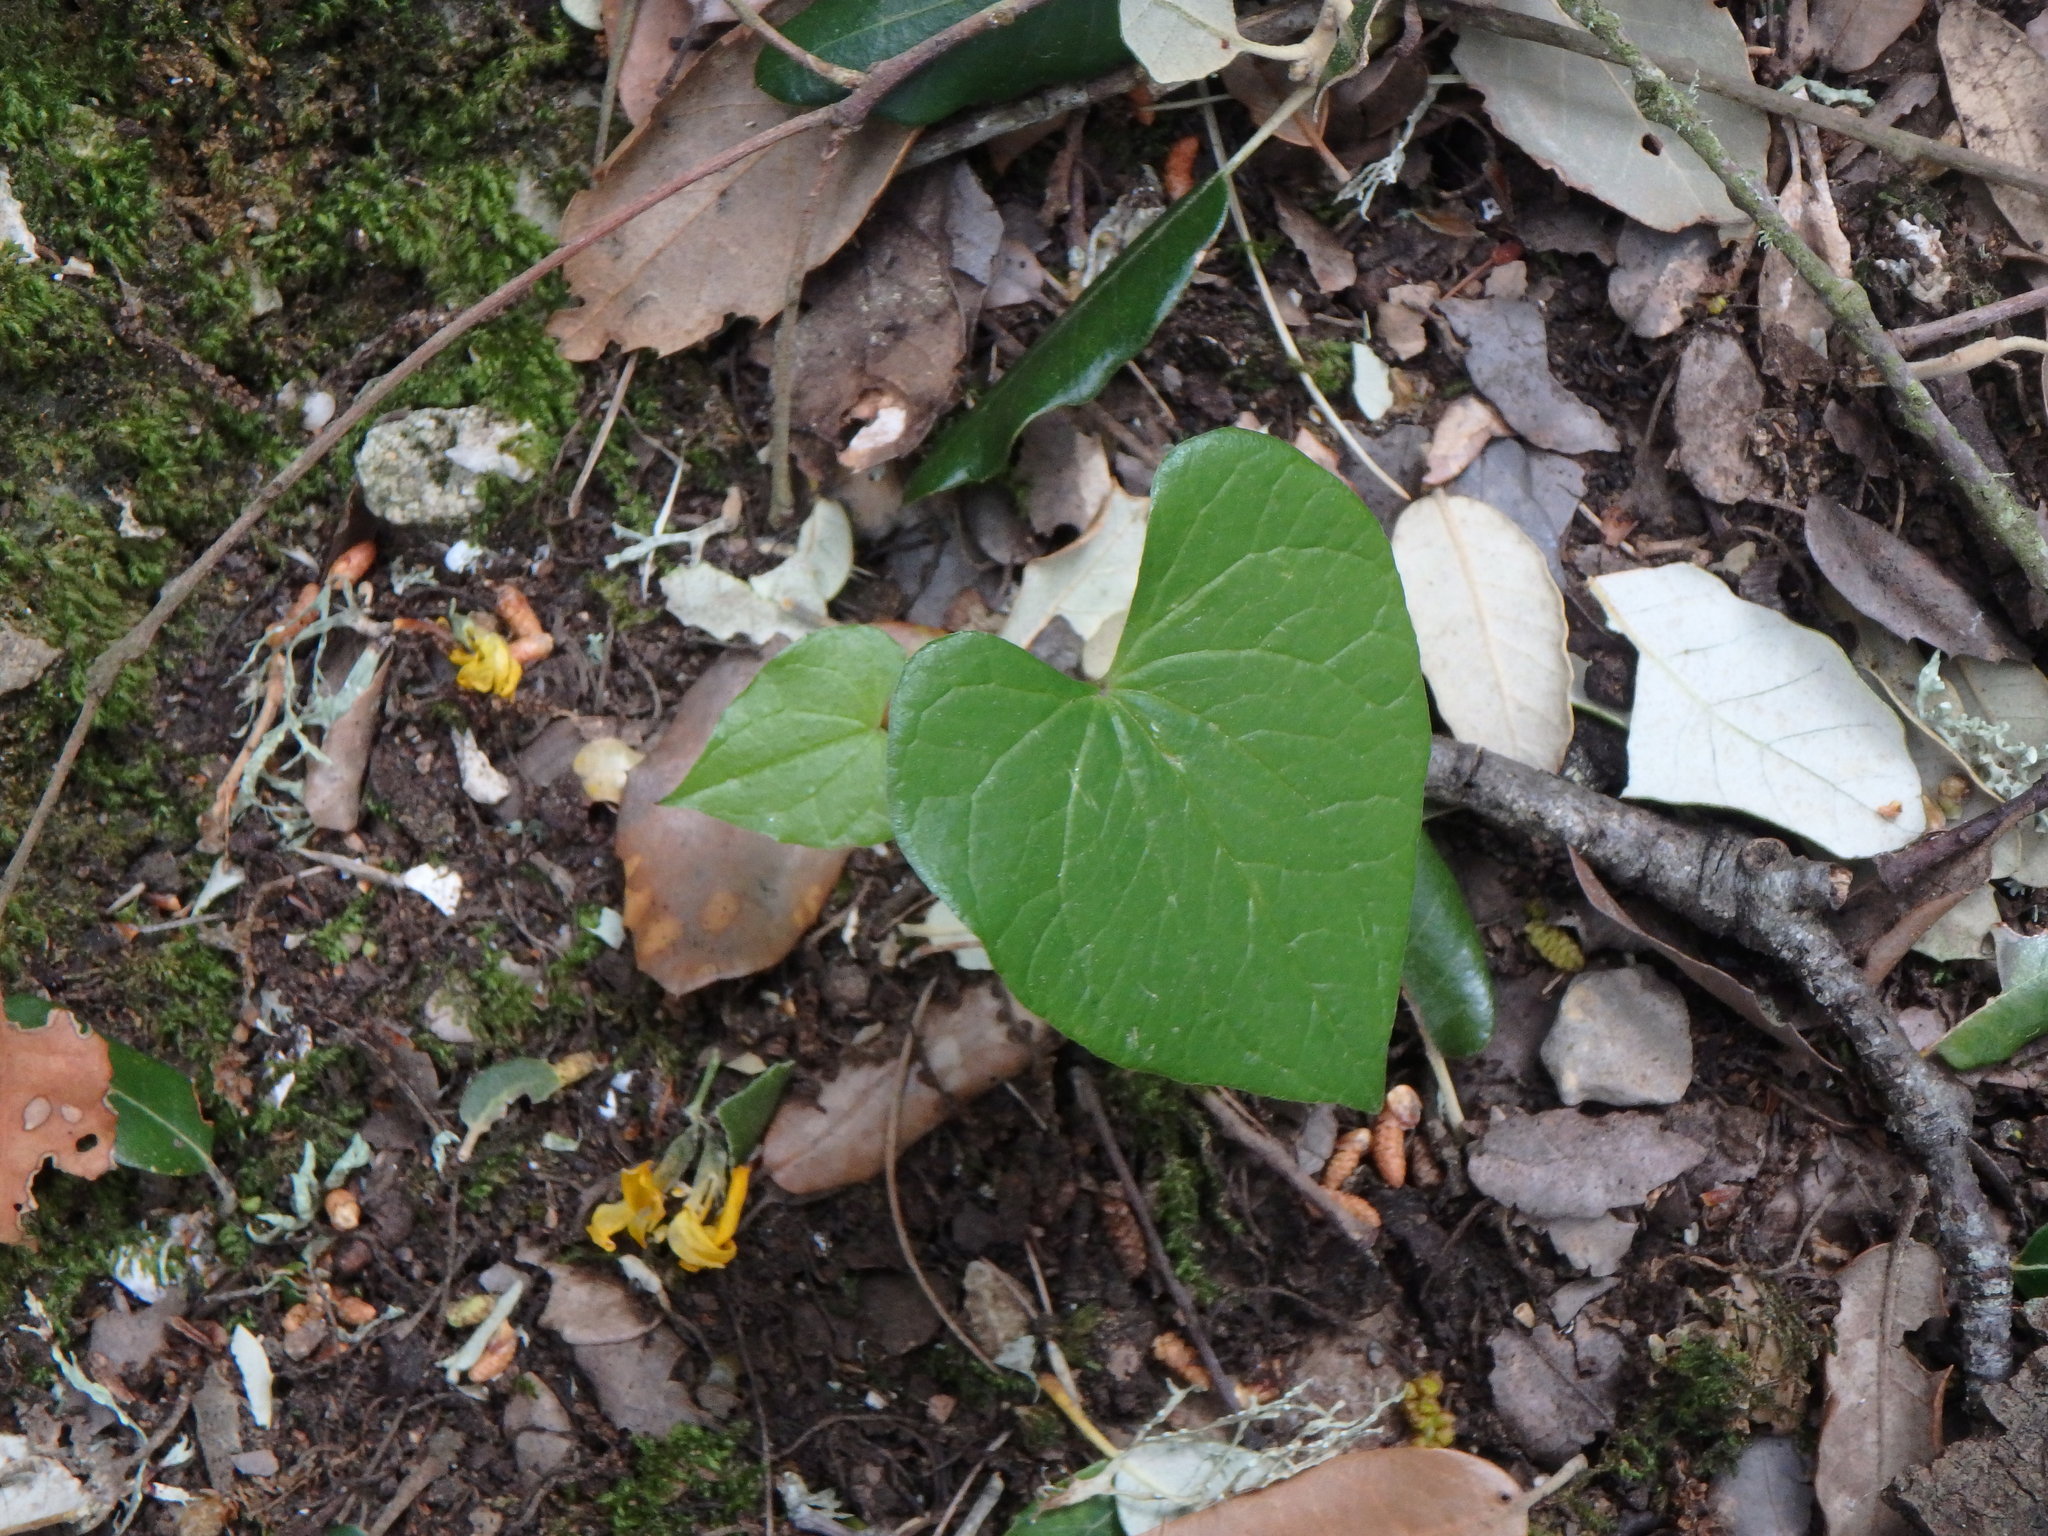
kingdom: Plantae
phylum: Tracheophyta
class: Liliopsida
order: Dioscoreales
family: Dioscoreaceae
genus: Dioscorea
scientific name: Dioscorea communis
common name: Black-bindweed
